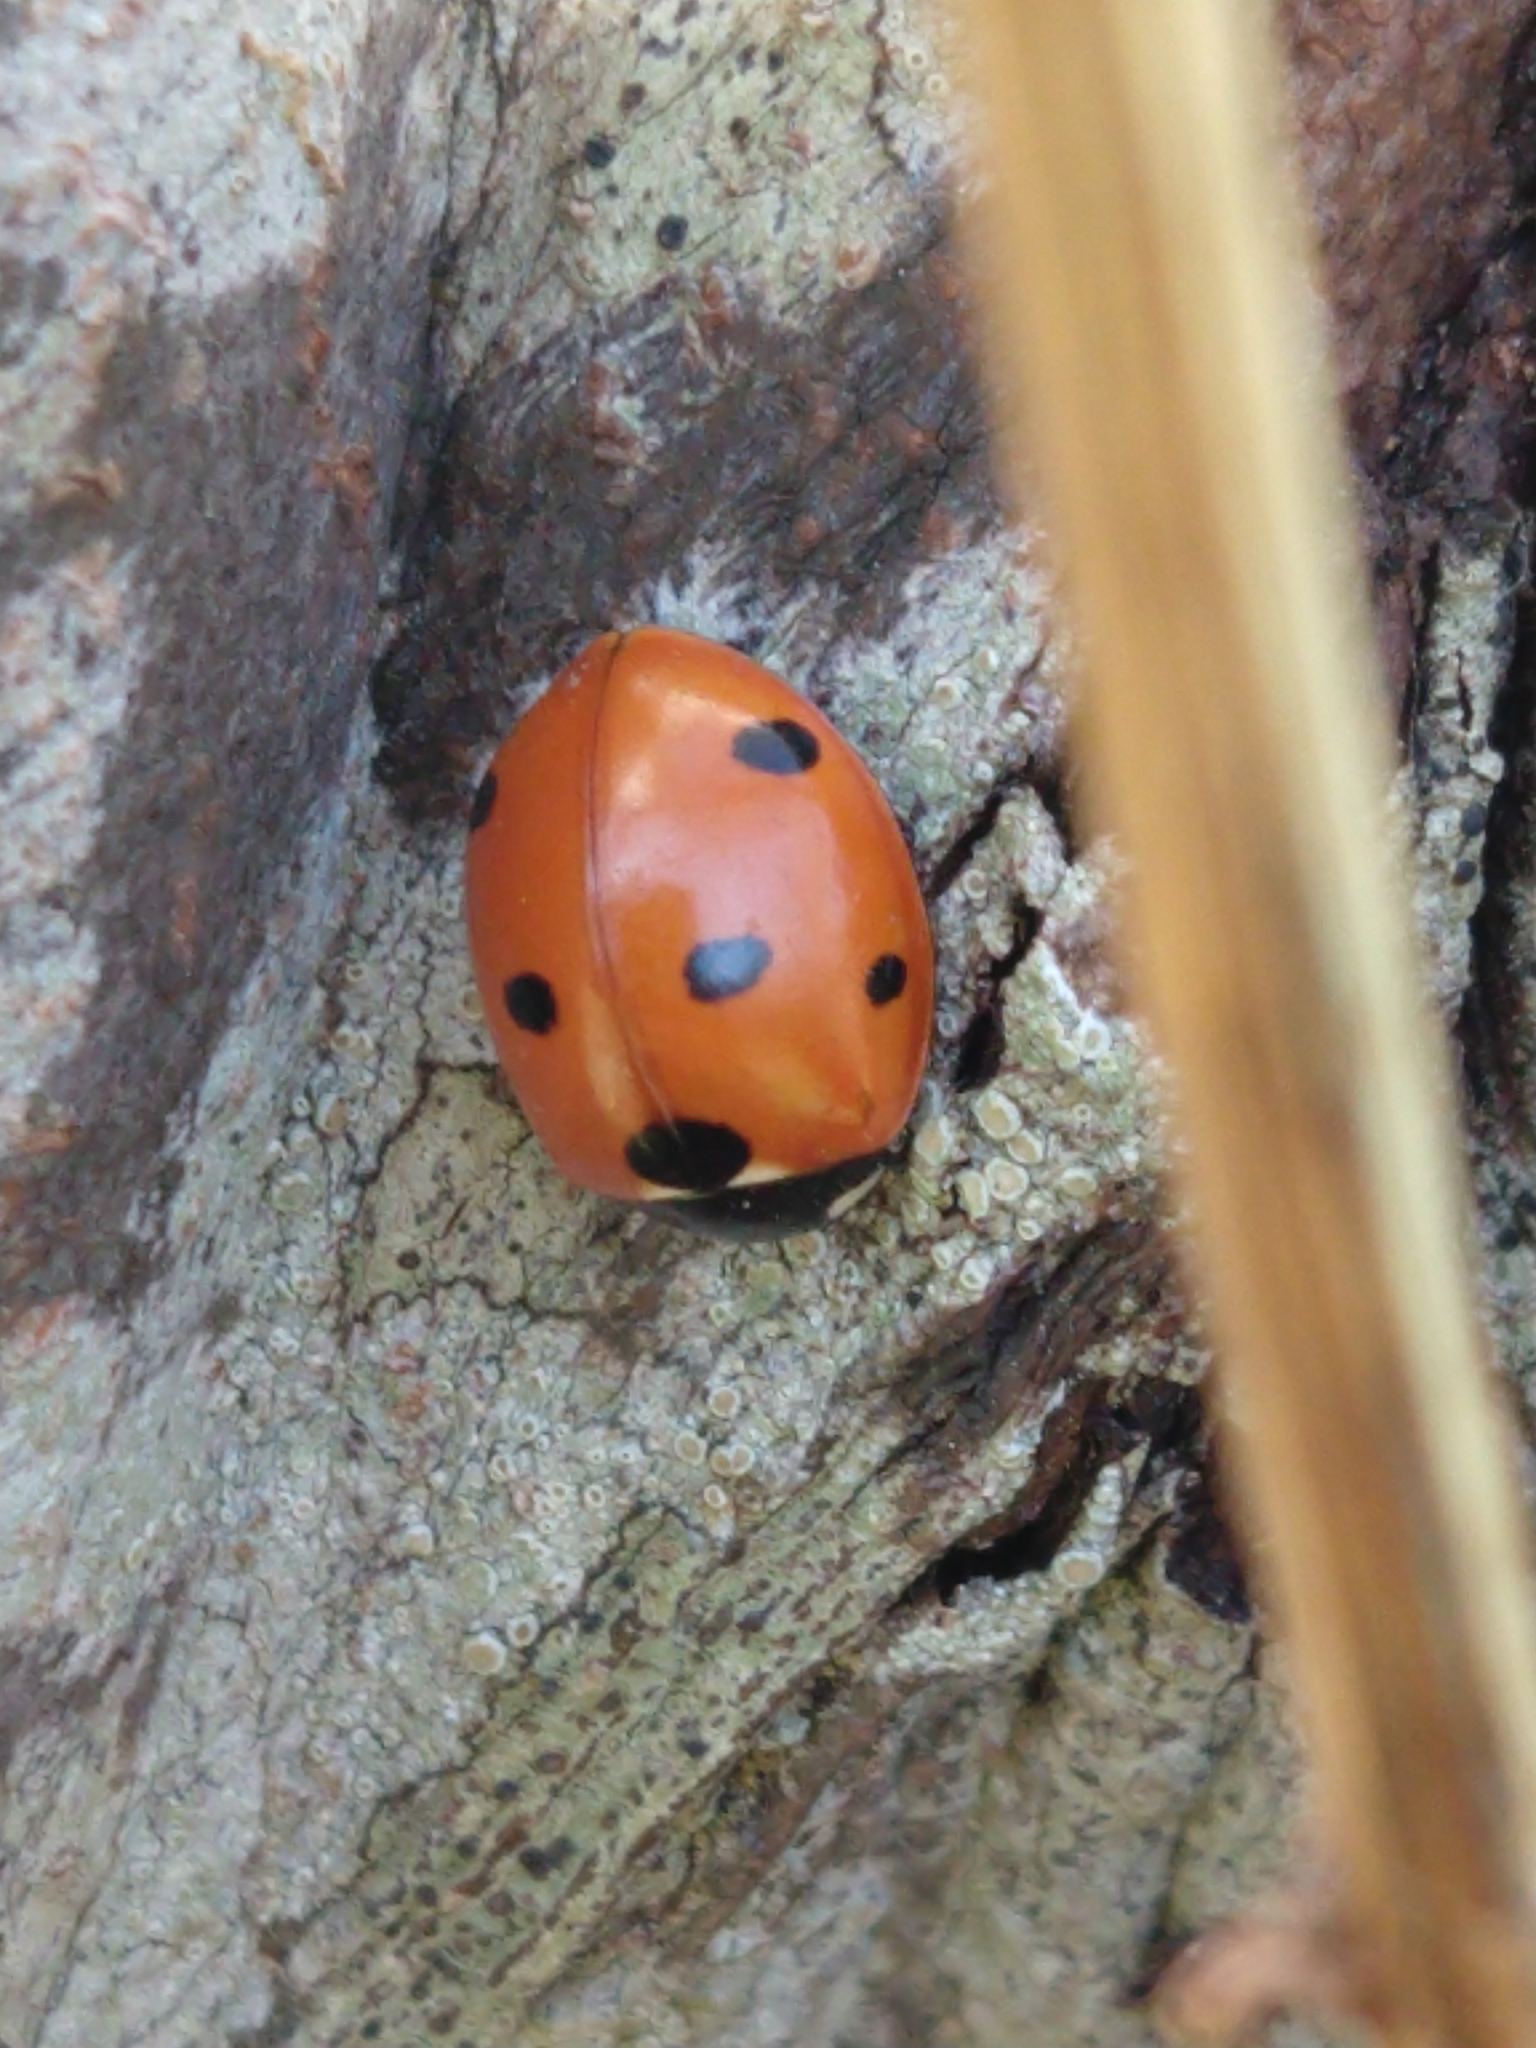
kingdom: Animalia
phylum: Arthropoda
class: Insecta
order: Coleoptera
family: Coccinellidae
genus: Coccinella
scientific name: Coccinella septempunctata
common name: Sevenspotted lady beetle
